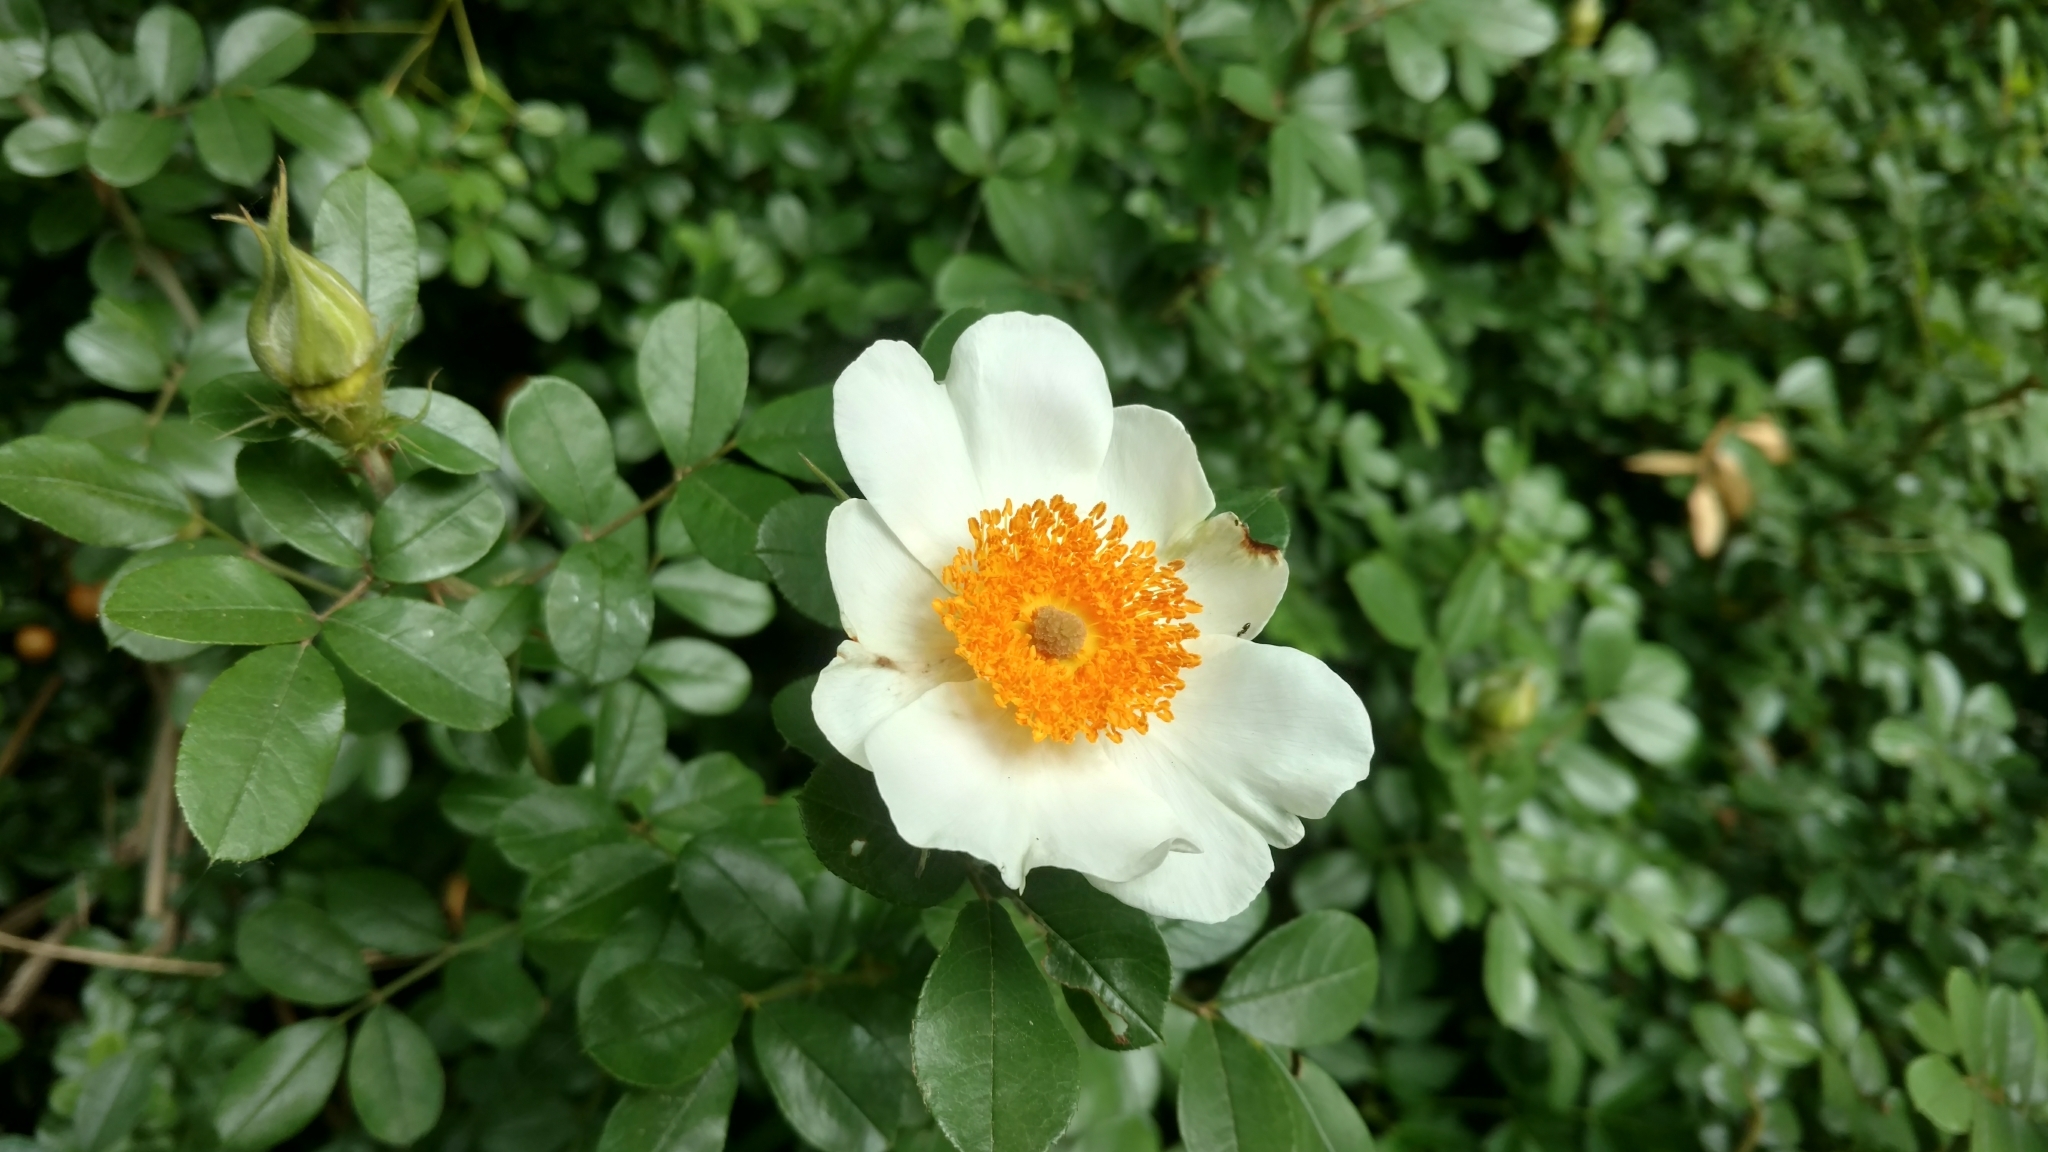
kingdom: Plantae
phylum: Tracheophyta
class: Magnoliopsida
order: Rosales
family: Rosaceae
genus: Rosa
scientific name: Rosa bracteata
